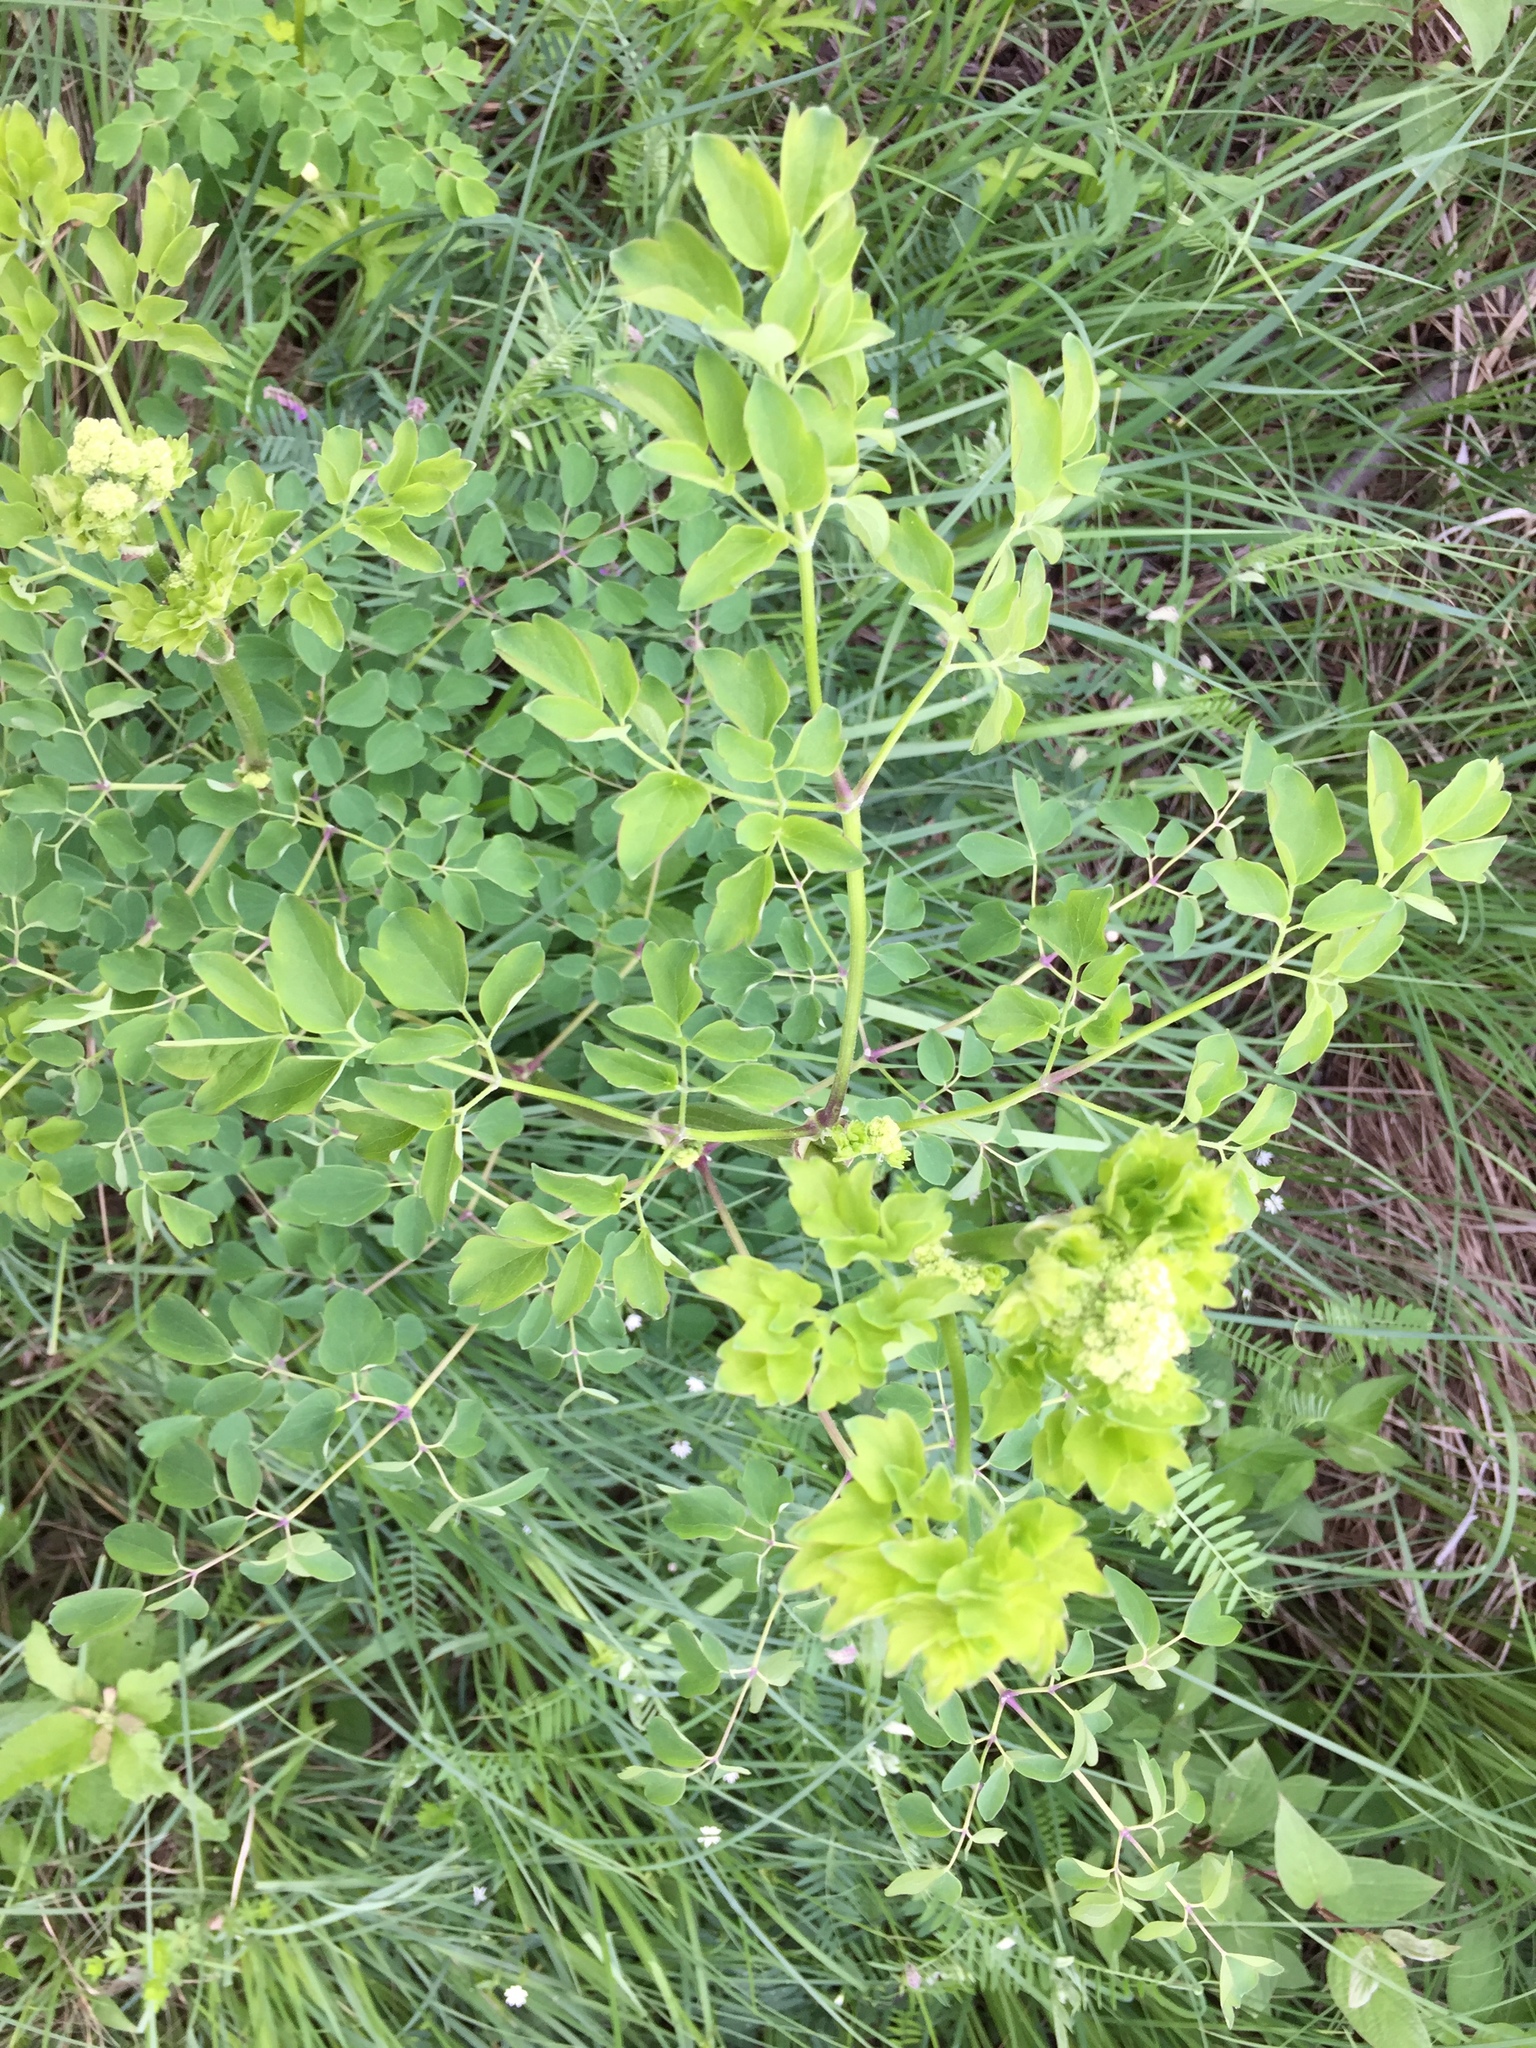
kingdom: Plantae
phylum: Tracheophyta
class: Magnoliopsida
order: Ranunculales
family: Ranunculaceae
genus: Thalictrum
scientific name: Thalictrum pubescens
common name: King-of-the-meadow
